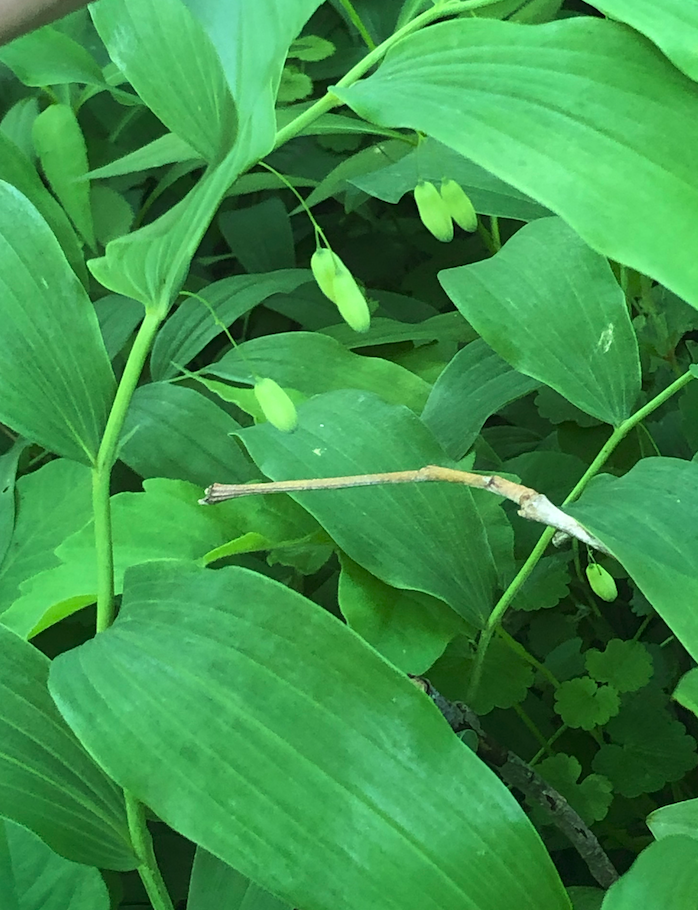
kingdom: Plantae
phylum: Tracheophyta
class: Liliopsida
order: Asparagales
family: Asparagaceae
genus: Polygonatum
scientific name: Polygonatum biflorum
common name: American solomon's-seal
